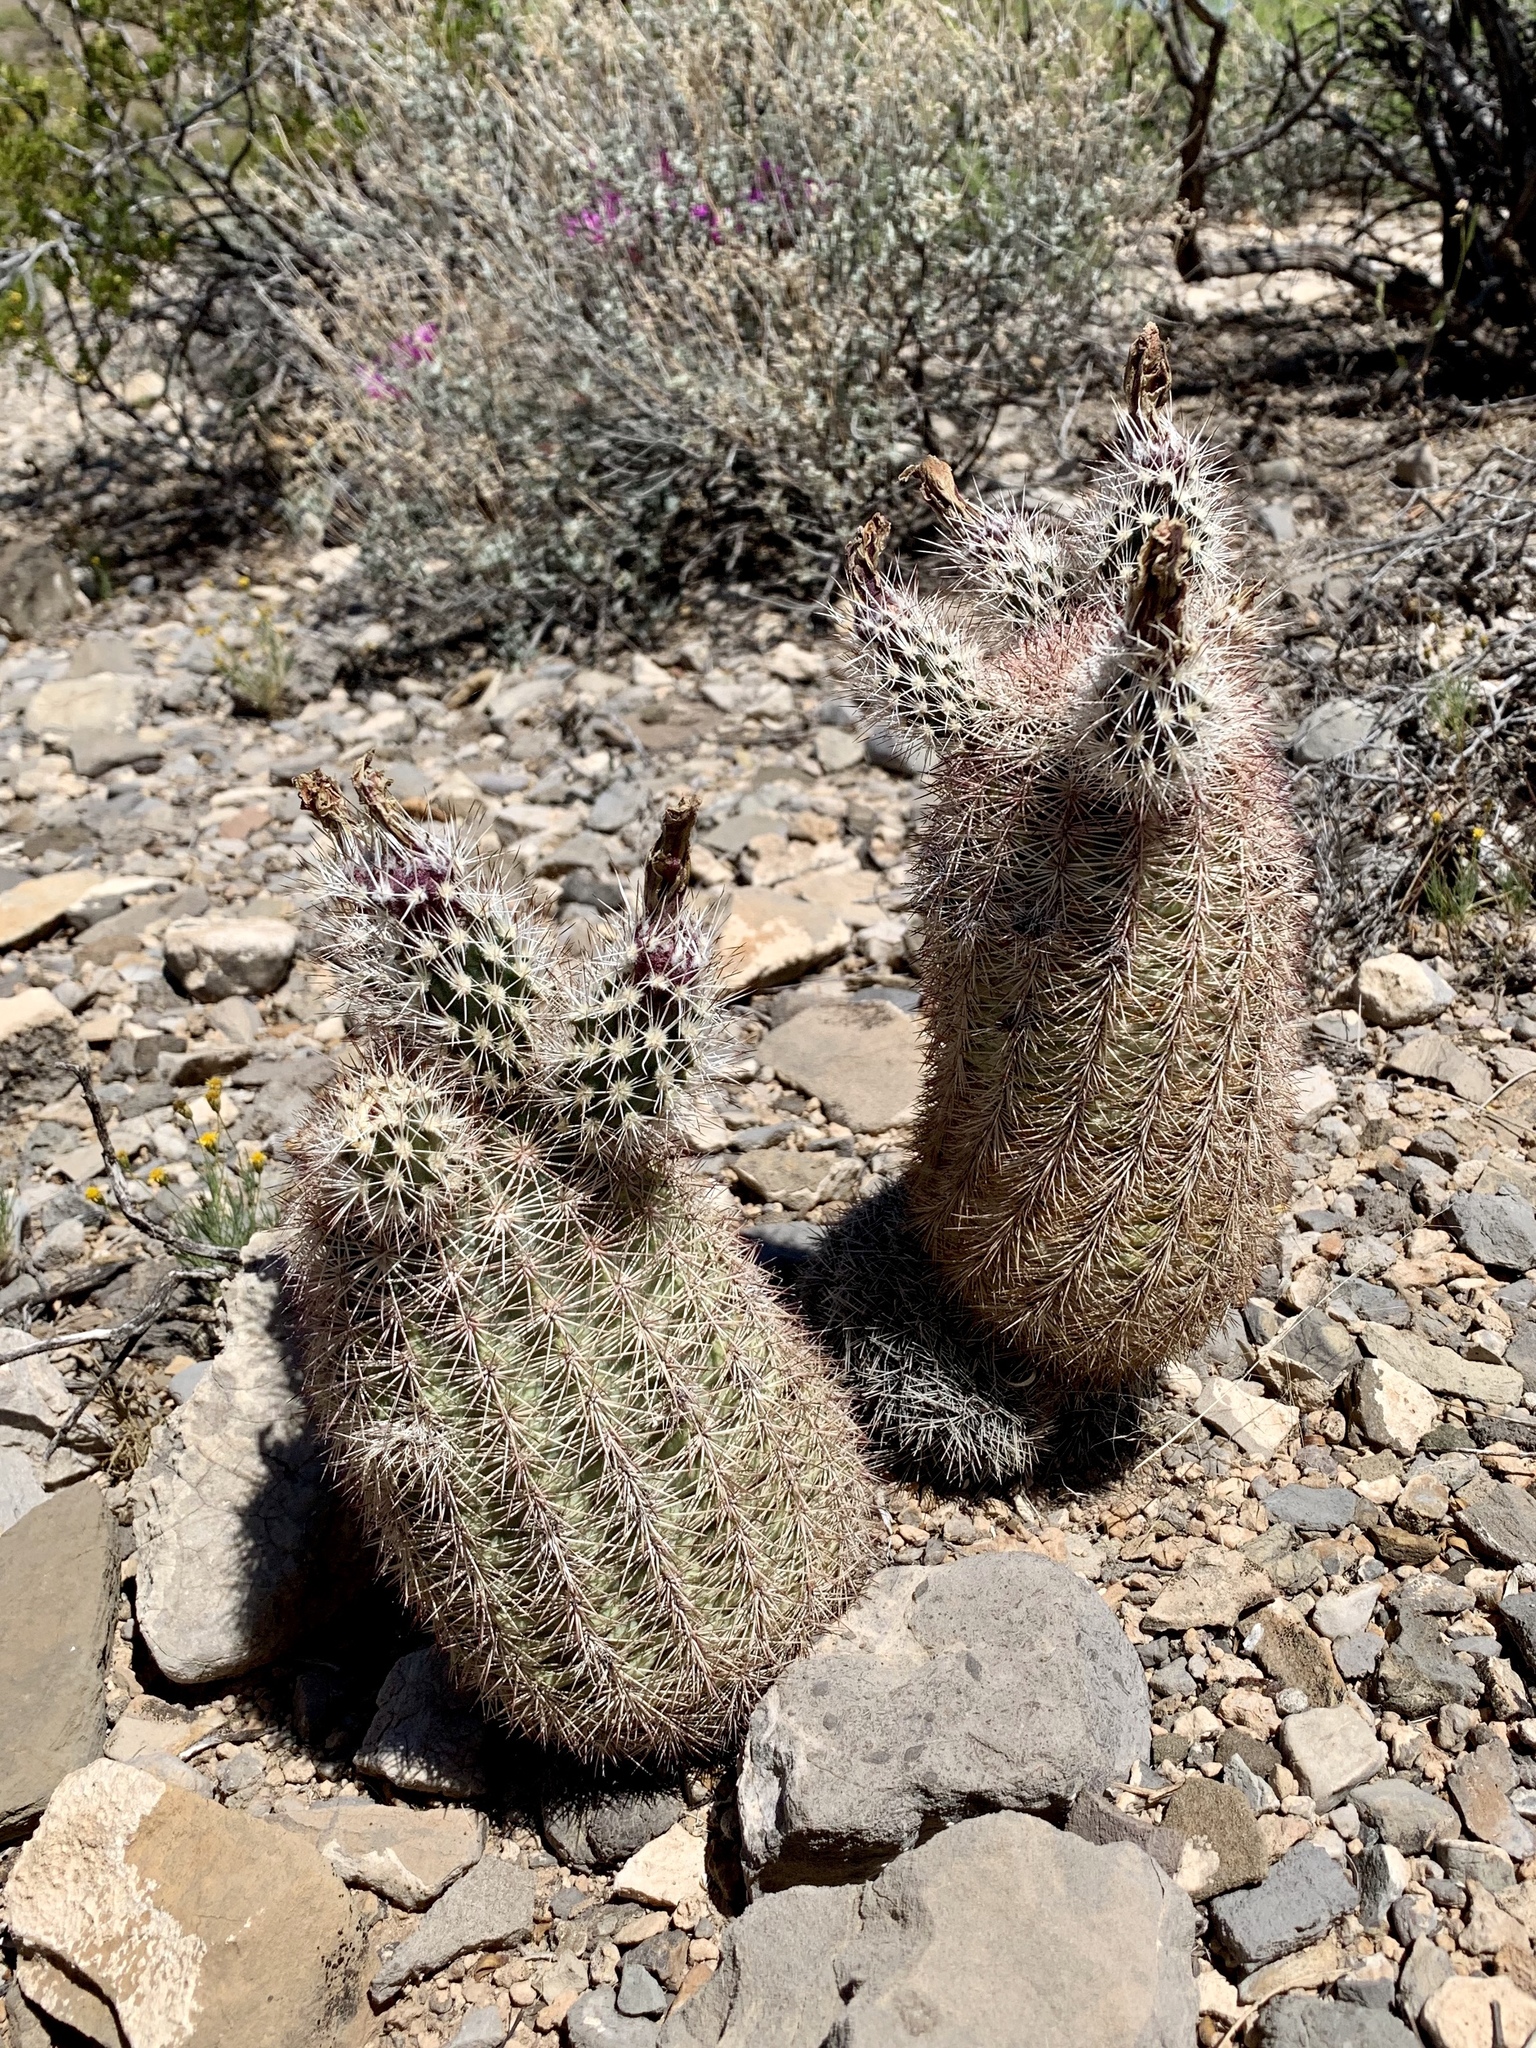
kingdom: Plantae
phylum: Tracheophyta
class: Magnoliopsida
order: Caryophyllales
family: Cactaceae
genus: Echinocereus
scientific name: Echinocereus dasyacanthus
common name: Spiny hedgehog cactus
